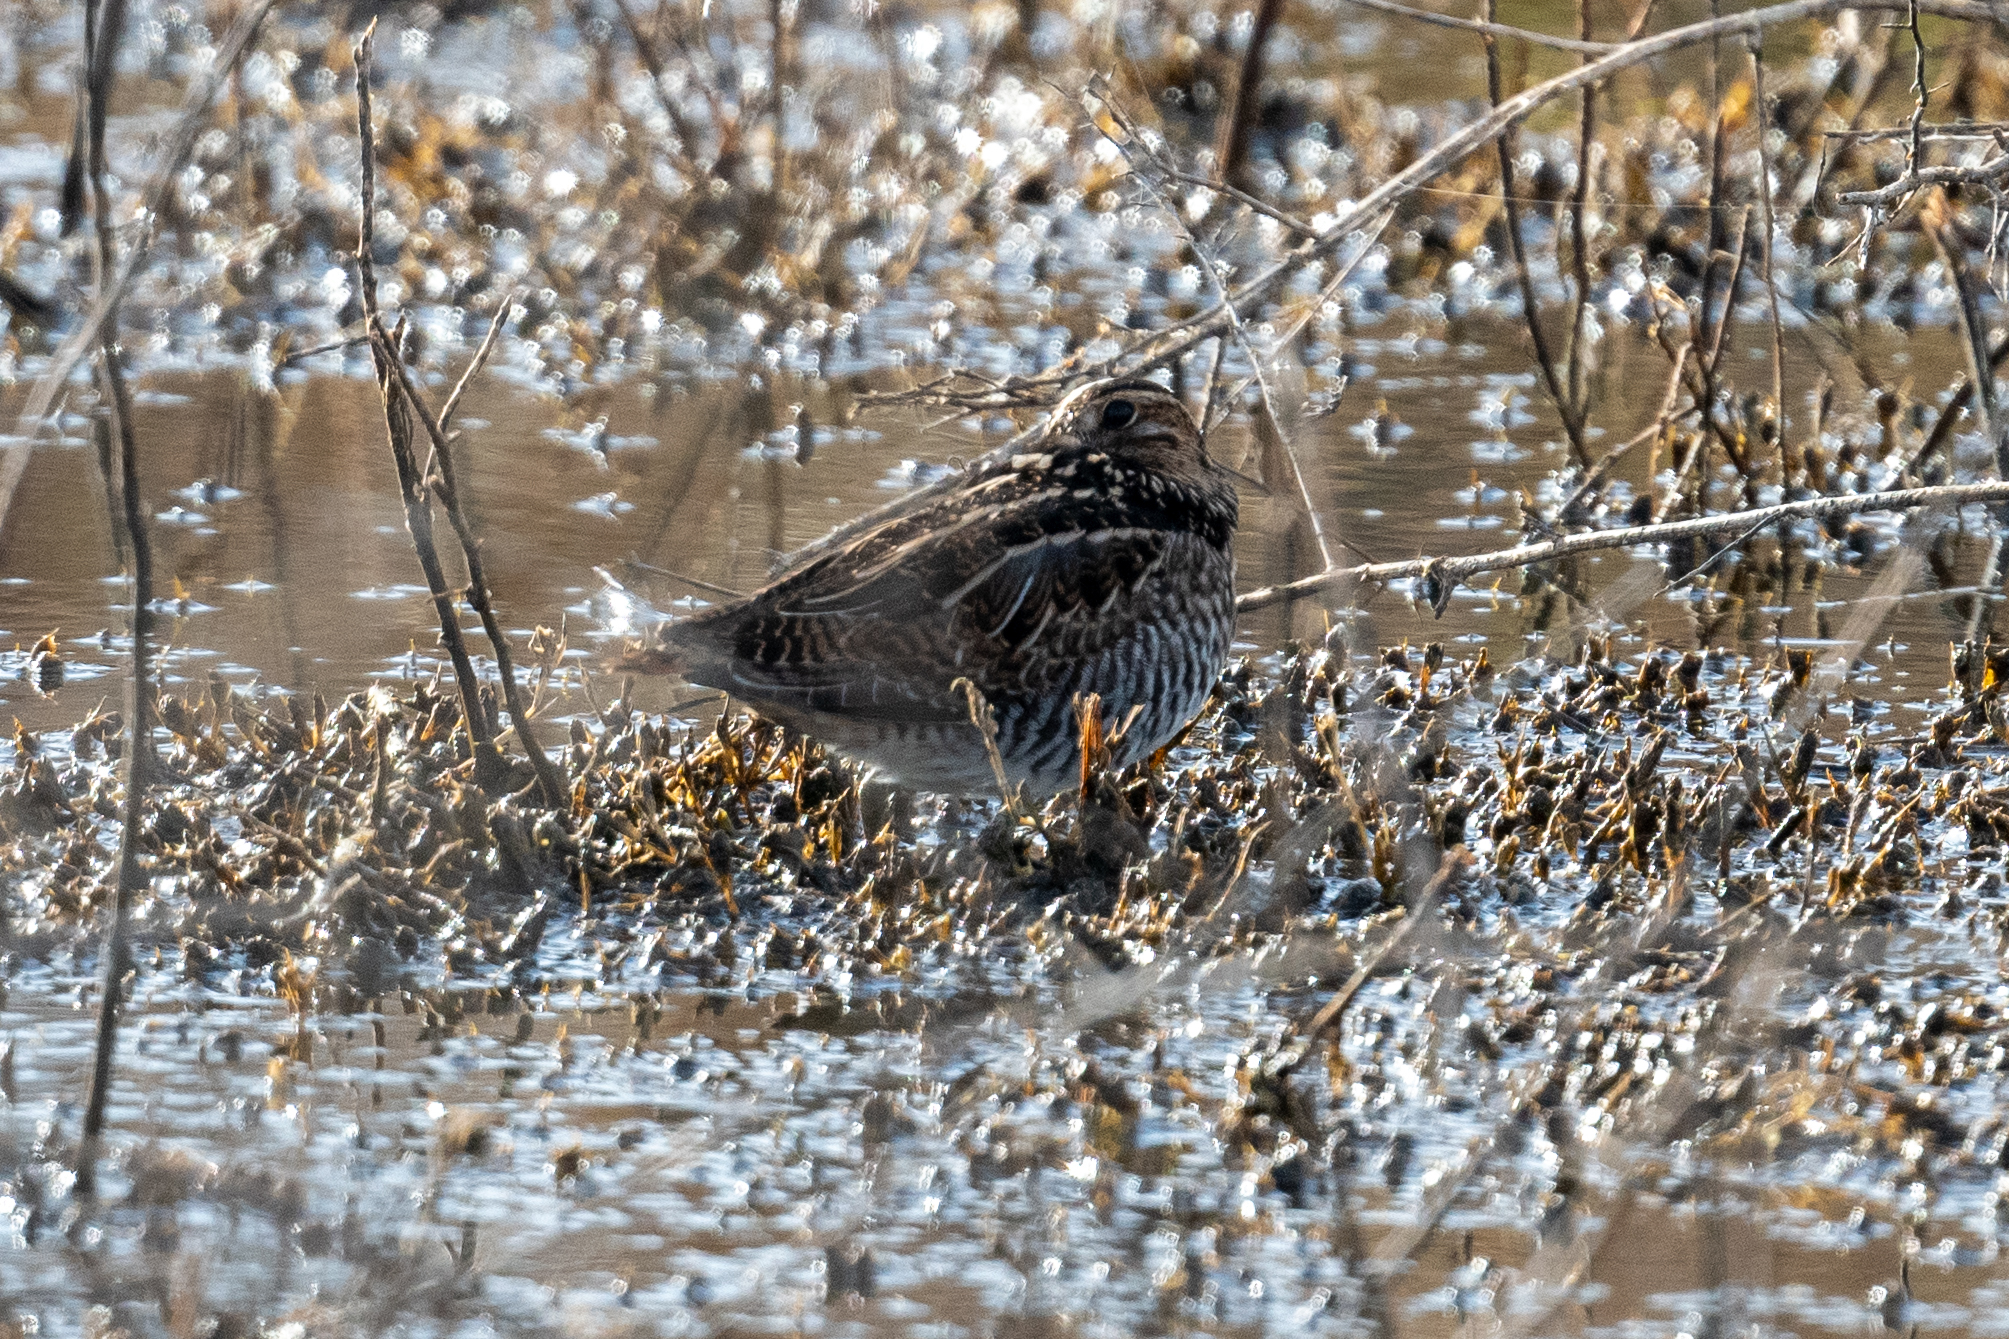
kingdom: Animalia
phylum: Chordata
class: Aves
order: Charadriiformes
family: Scolopacidae
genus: Gallinago
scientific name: Gallinago delicata
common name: Wilson's snipe
